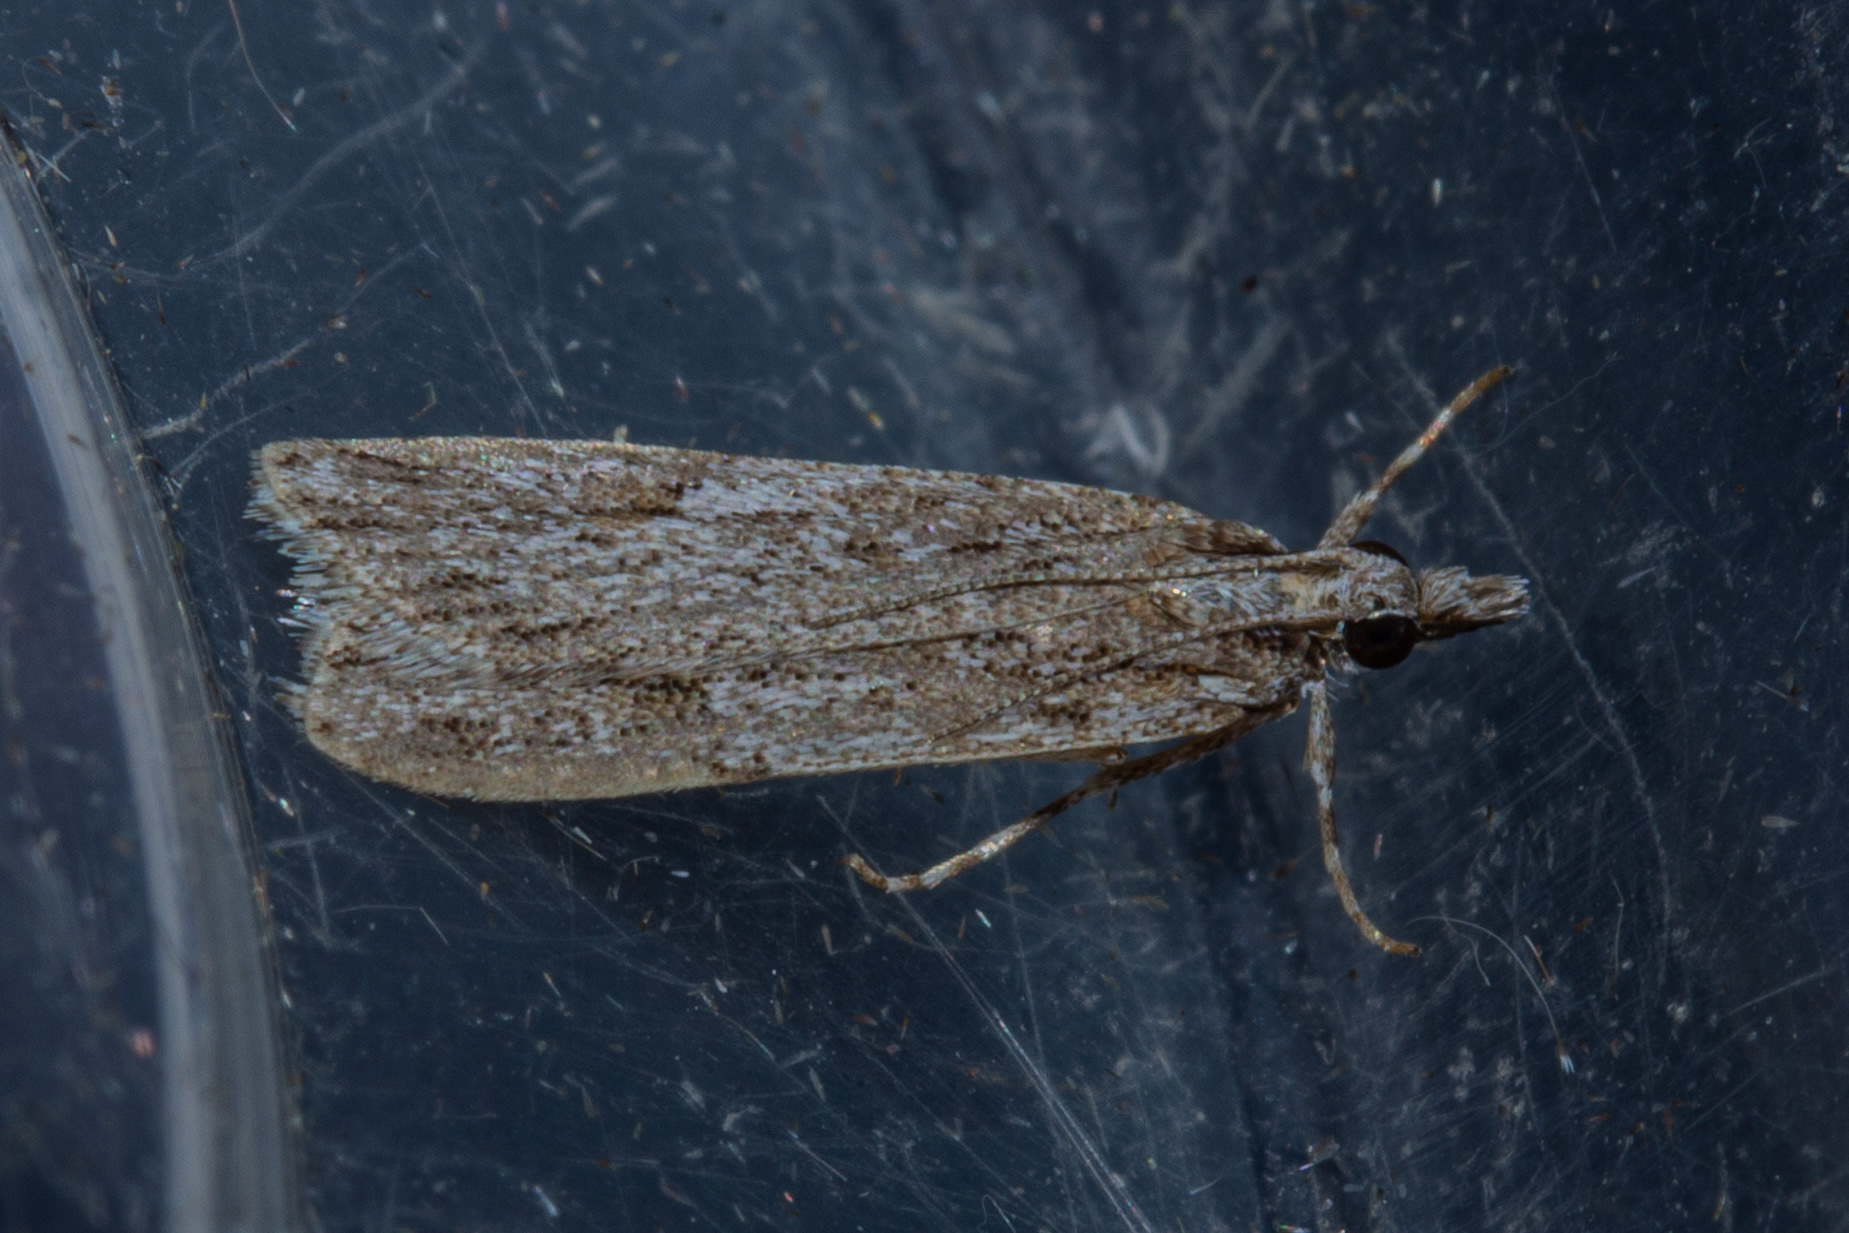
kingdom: Animalia
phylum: Arthropoda
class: Insecta
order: Lepidoptera
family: Crambidae
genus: Scoparia
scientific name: Scoparia chalicodes
